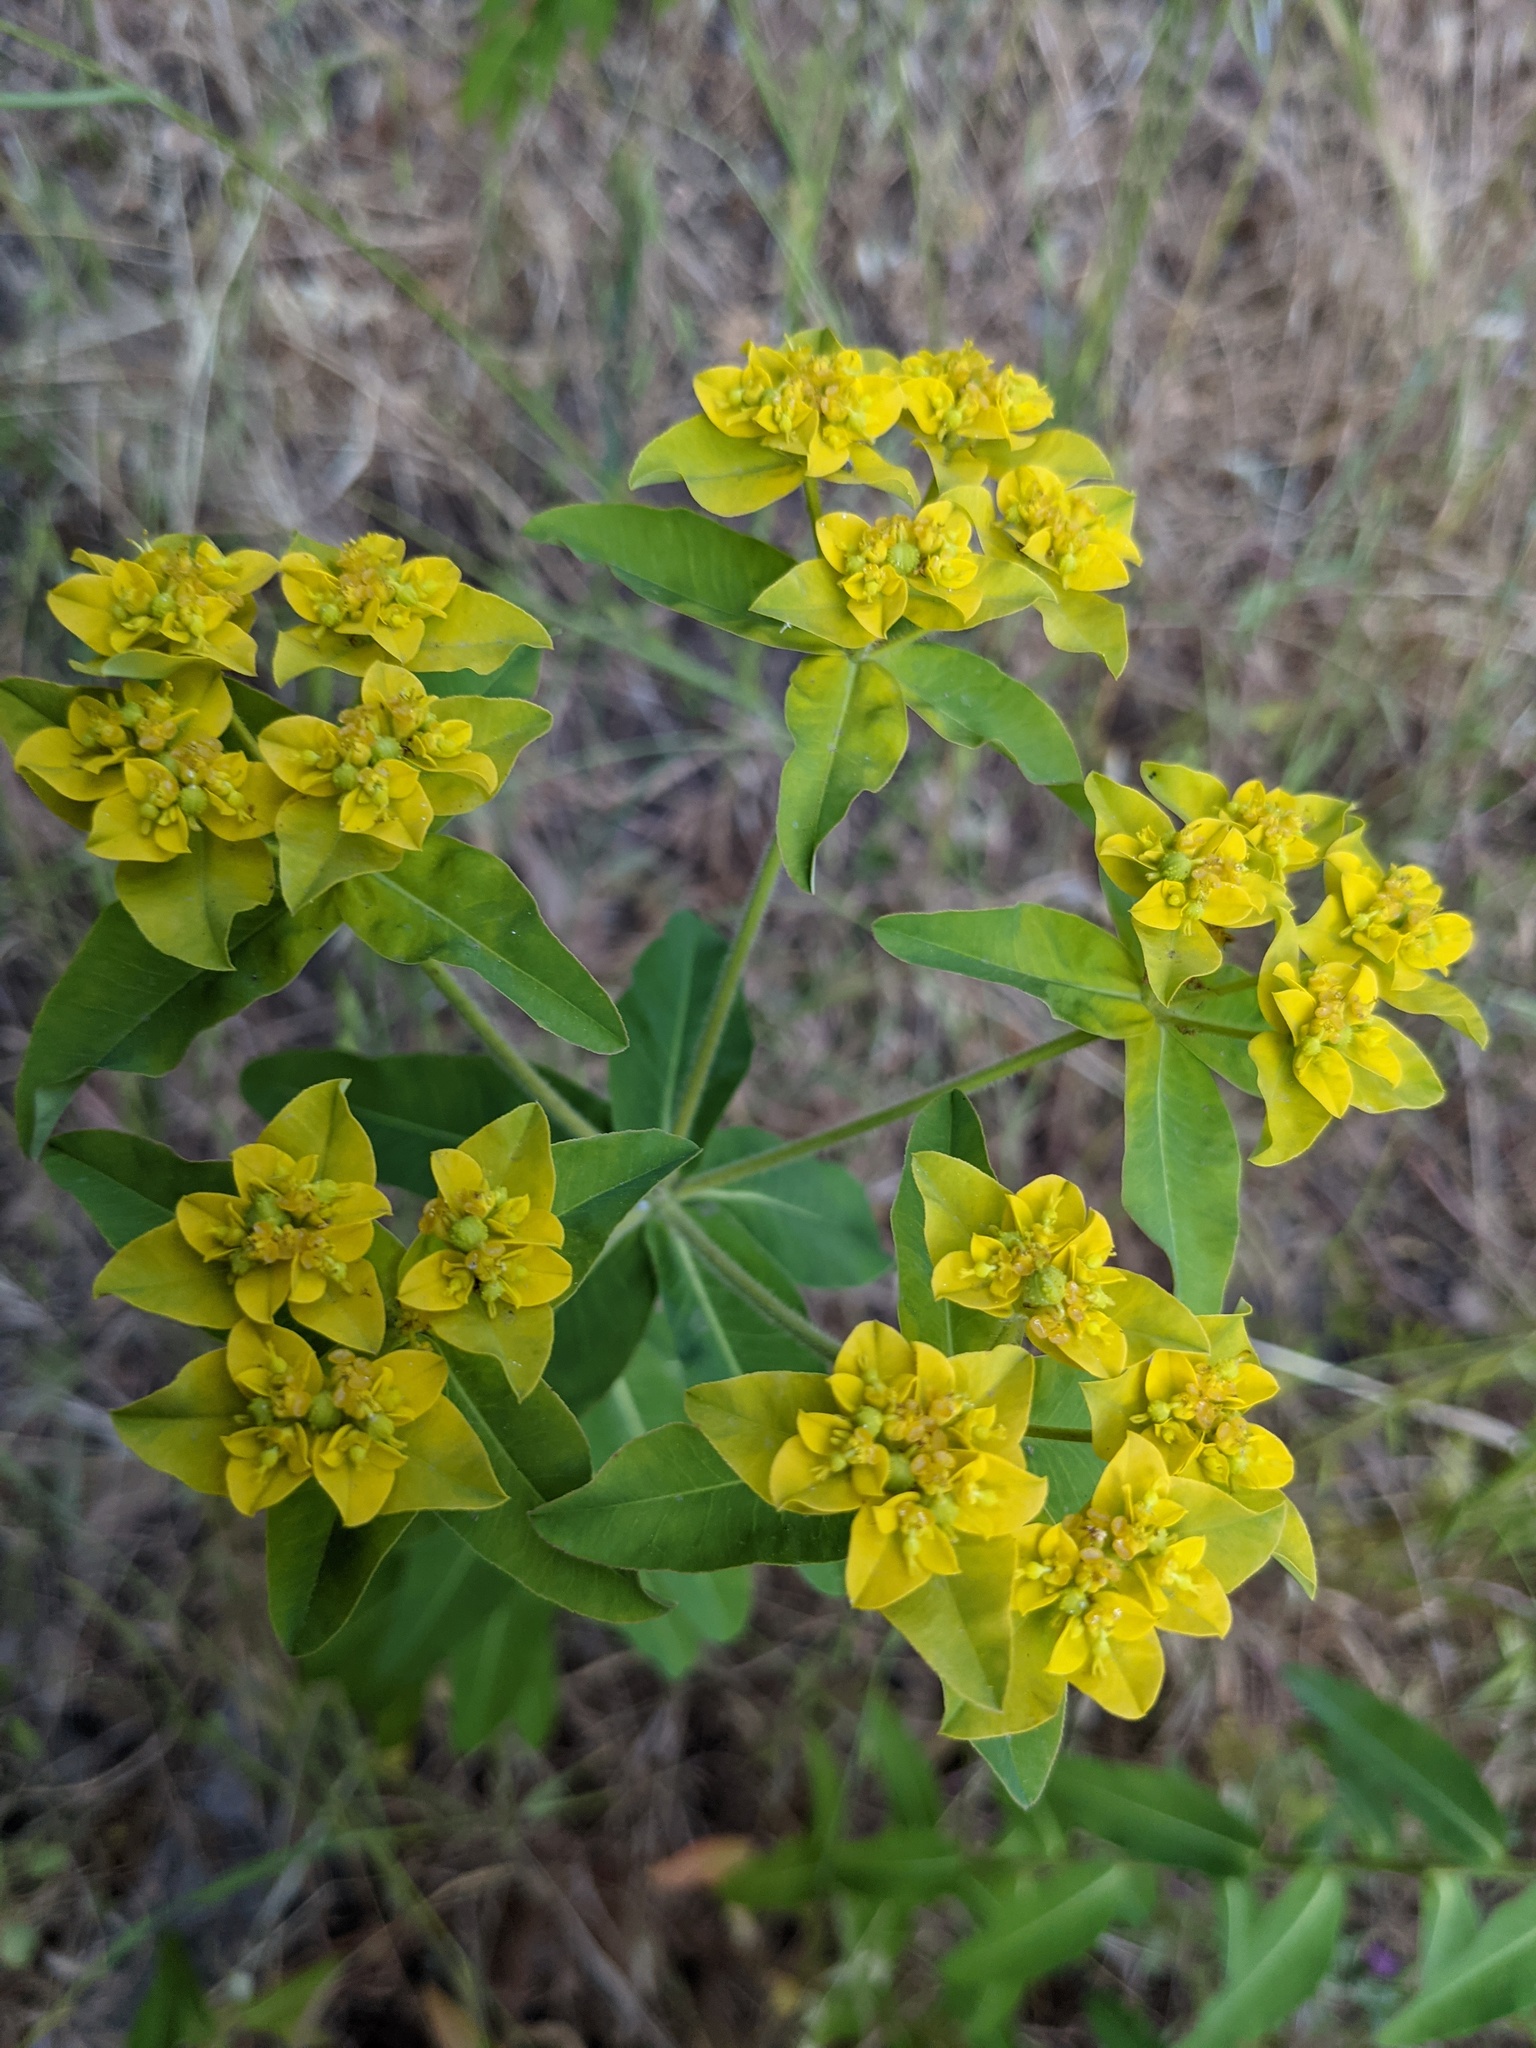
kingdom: Plantae
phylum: Tracheophyta
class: Magnoliopsida
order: Malpighiales
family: Euphorbiaceae
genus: Euphorbia
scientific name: Euphorbia oblongata
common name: Balkan spurge
